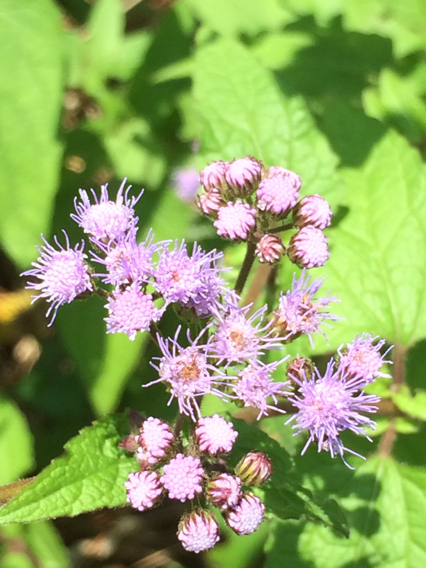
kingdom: Plantae
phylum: Tracheophyta
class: Magnoliopsida
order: Asterales
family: Asteraceae
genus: Conoclinium
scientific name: Conoclinium coelestinum
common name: Blue mistflower
